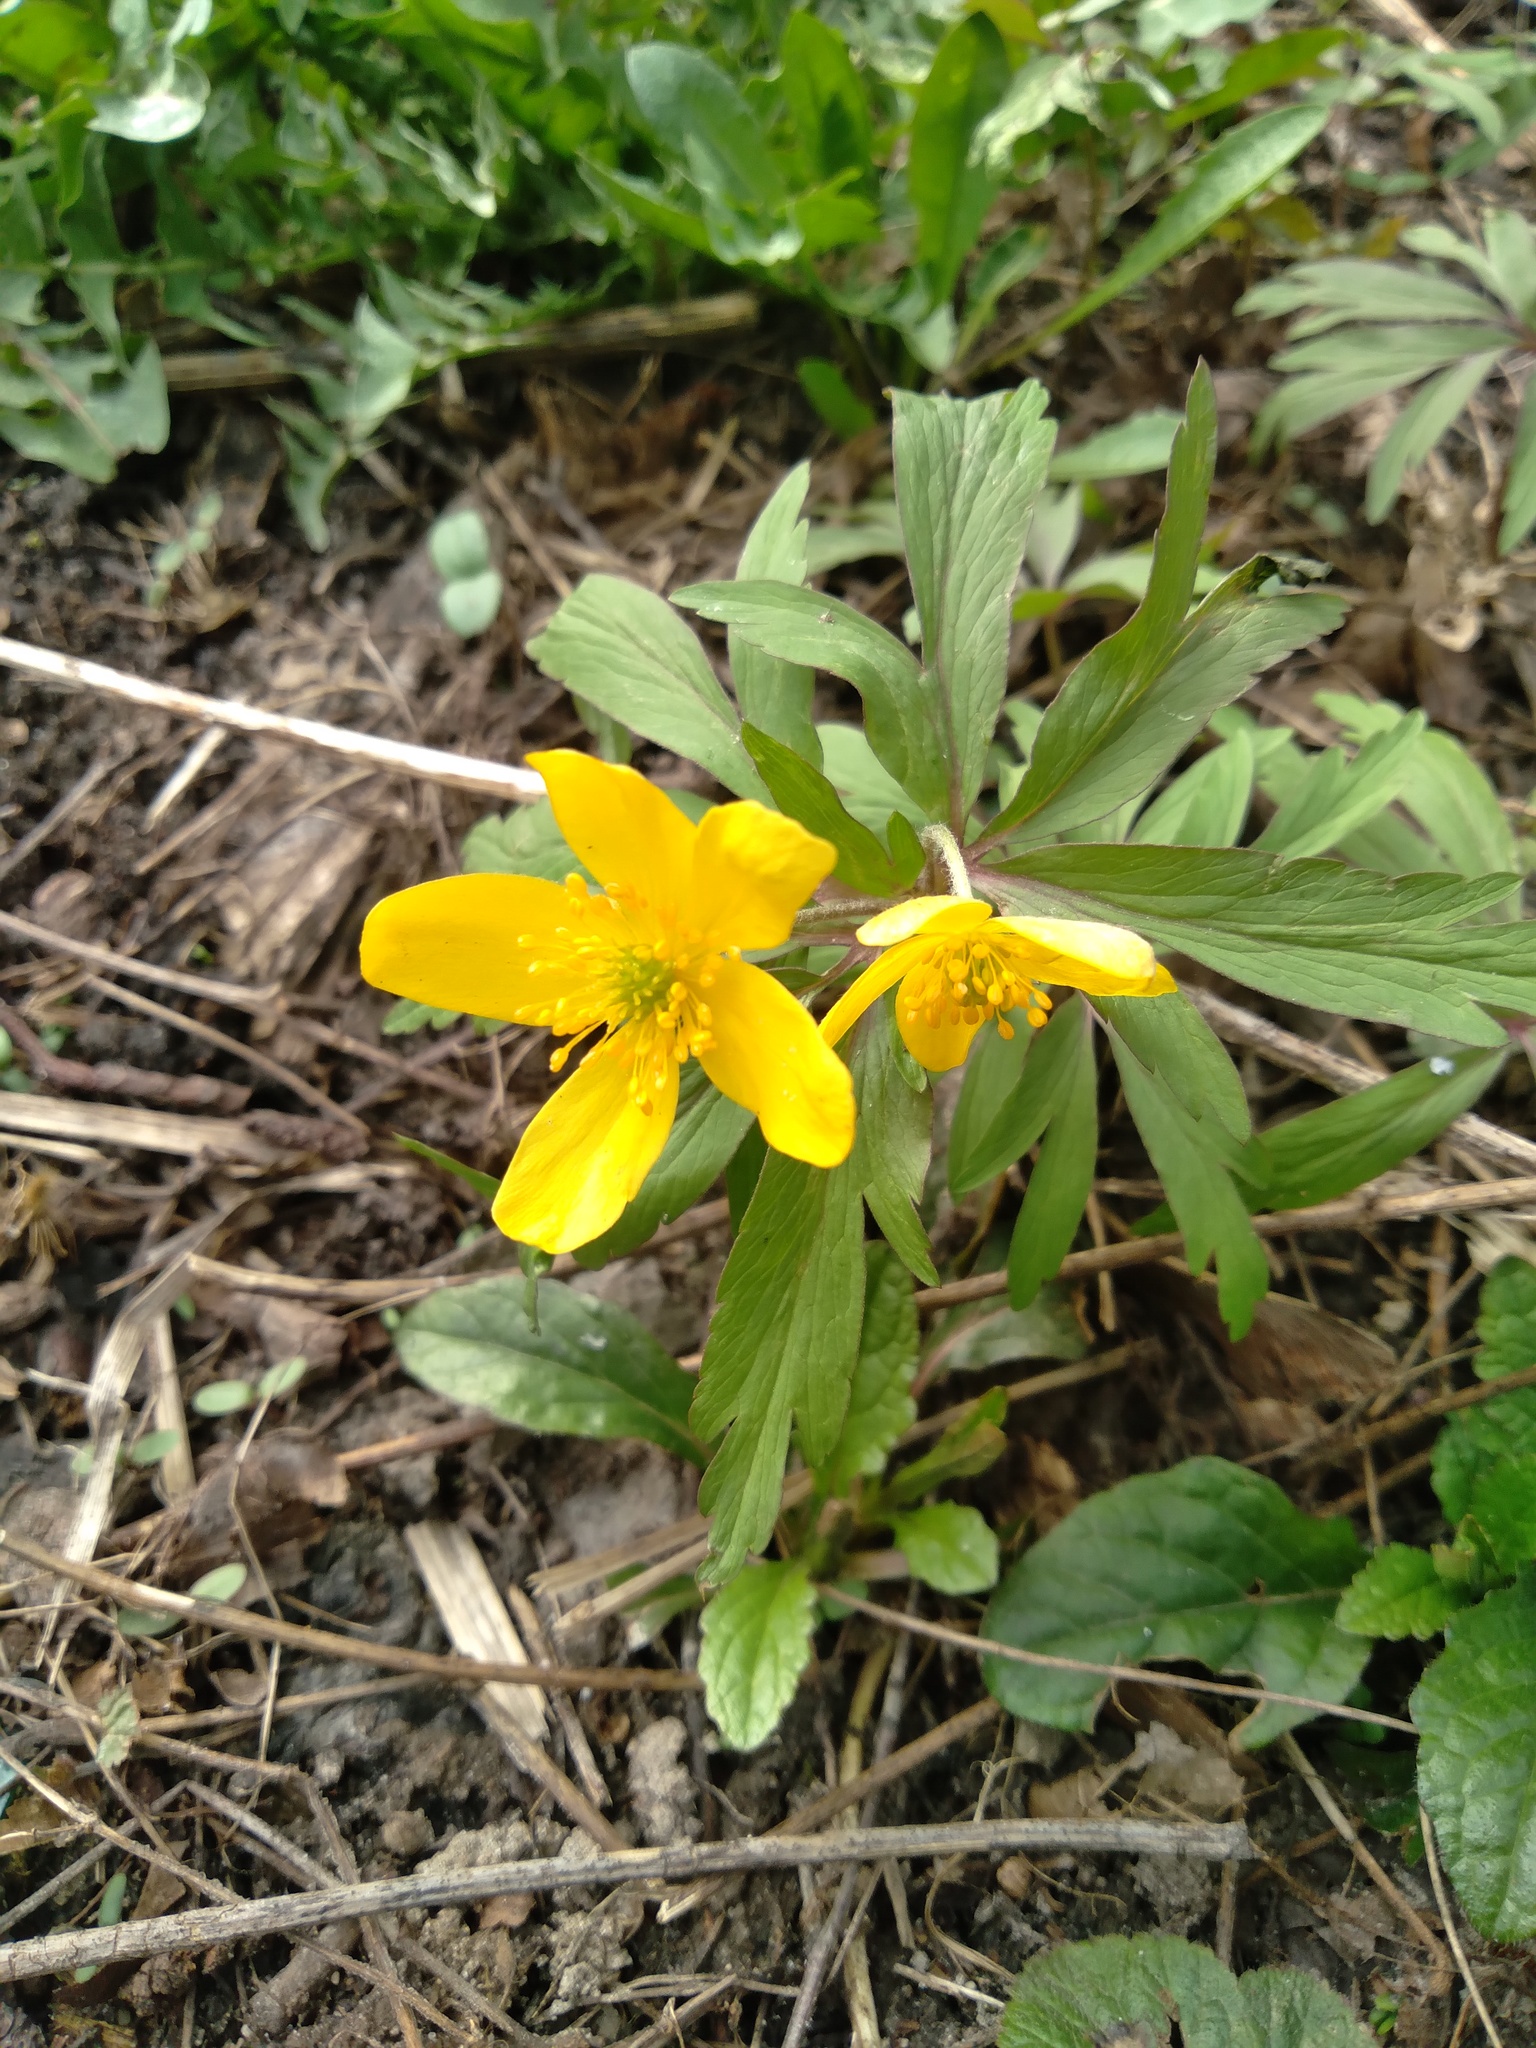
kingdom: Plantae
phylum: Tracheophyta
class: Magnoliopsida
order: Ranunculales
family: Ranunculaceae
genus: Anemone
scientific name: Anemone ranunculoides
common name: Yellow anemone
